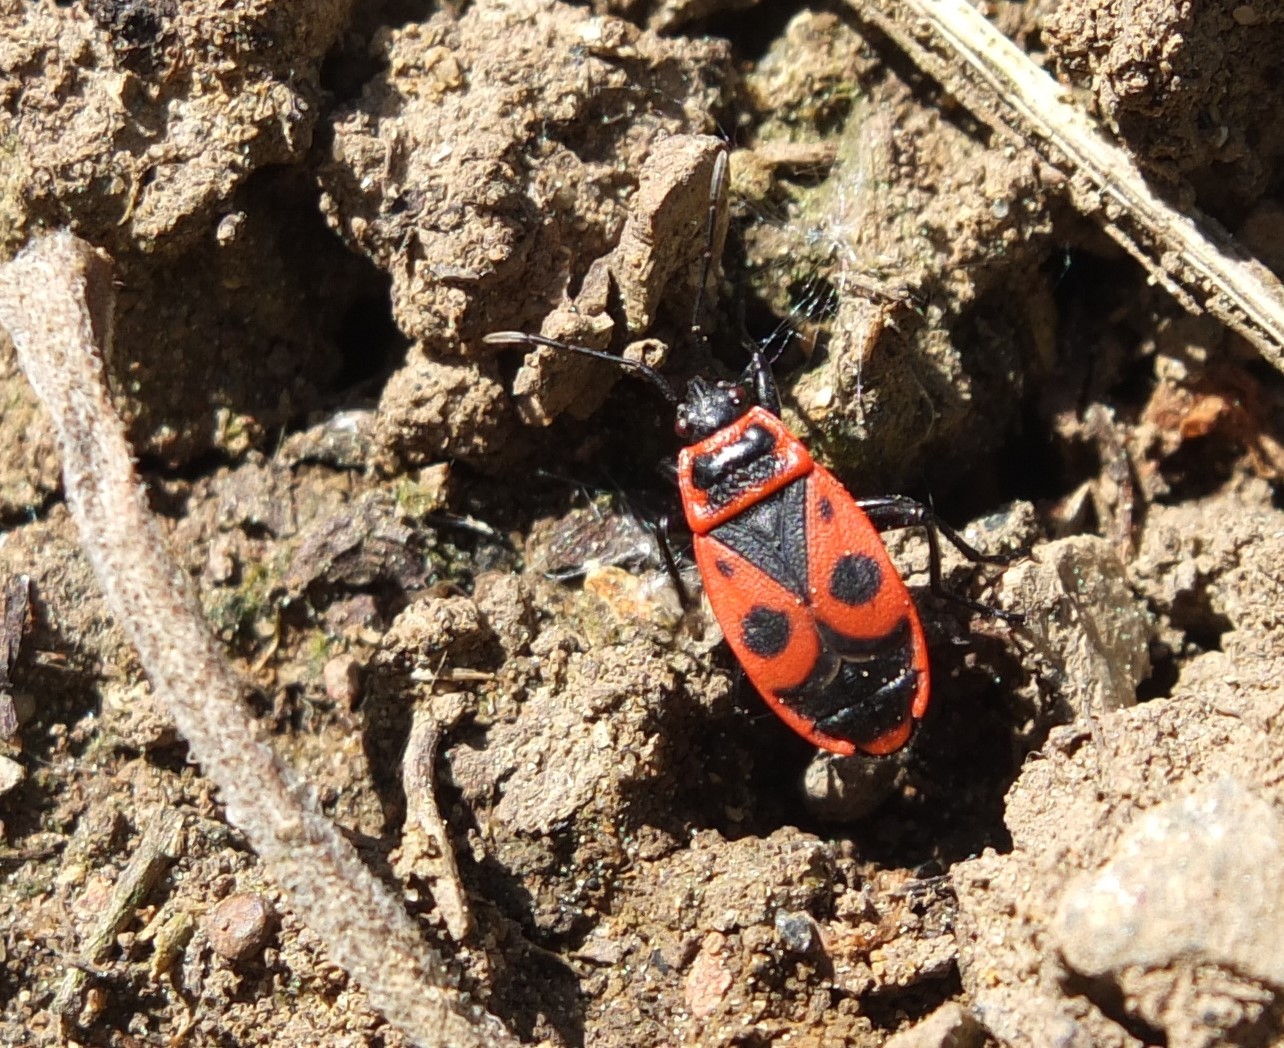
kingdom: Animalia
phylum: Arthropoda
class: Insecta
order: Hemiptera
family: Pyrrhocoridae
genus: Pyrrhocoris
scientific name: Pyrrhocoris apterus
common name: Firebug
